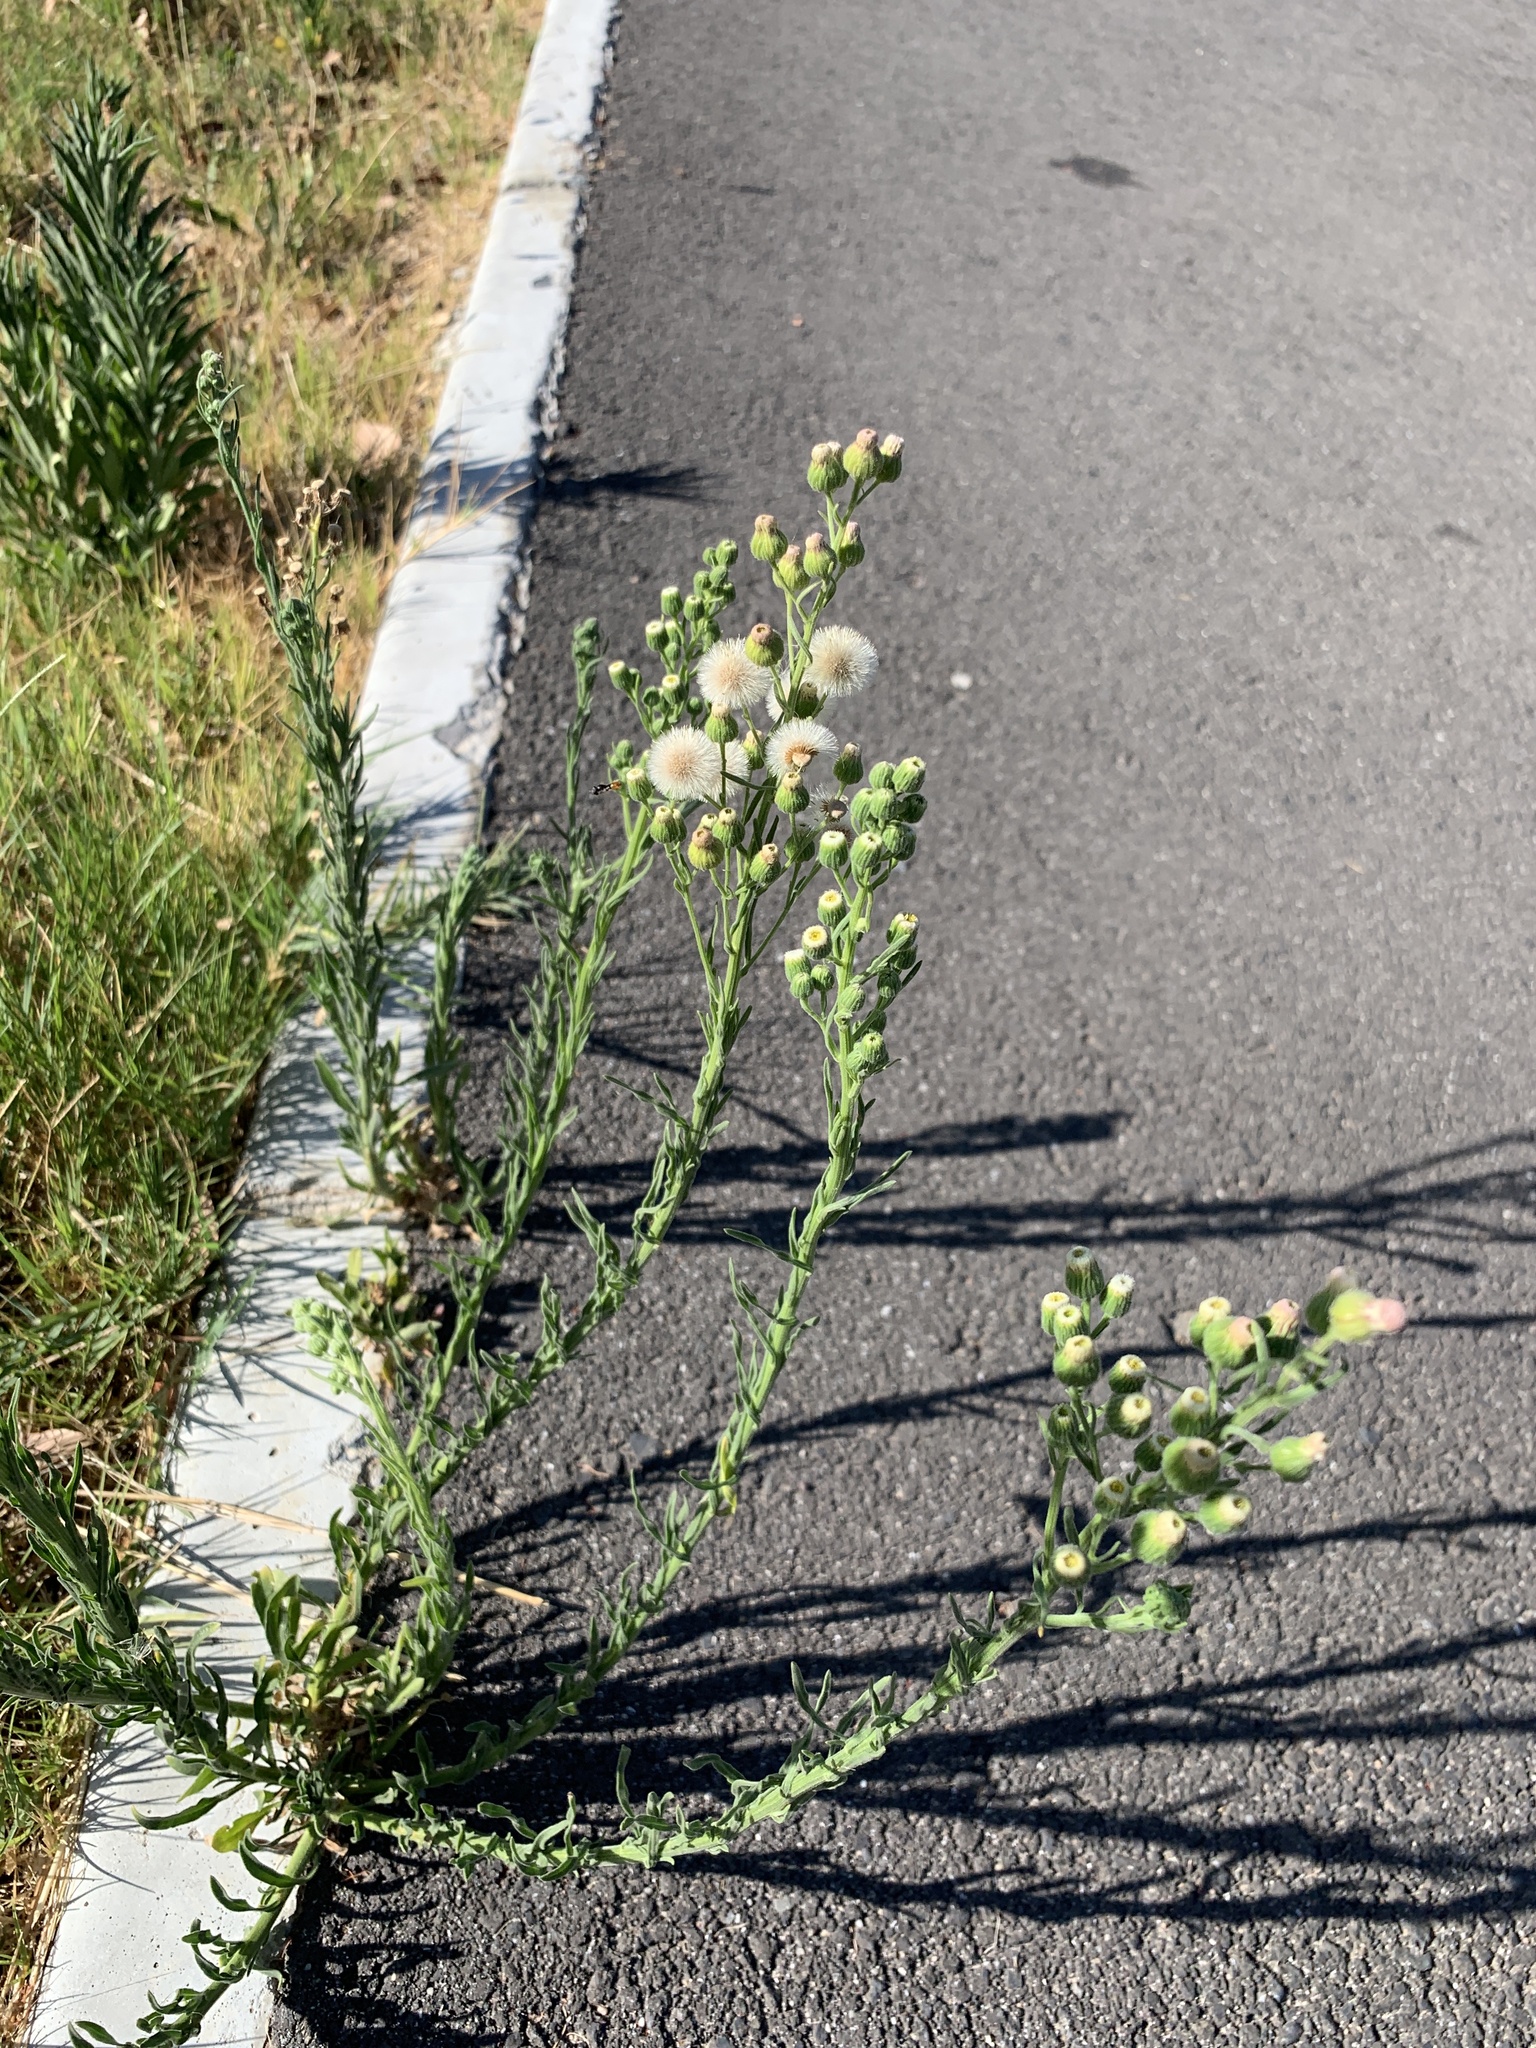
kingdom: Plantae
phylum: Tracheophyta
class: Magnoliopsida
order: Asterales
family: Asteraceae
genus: Erigeron
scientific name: Erigeron bonariensis
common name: Argentine fleabane
